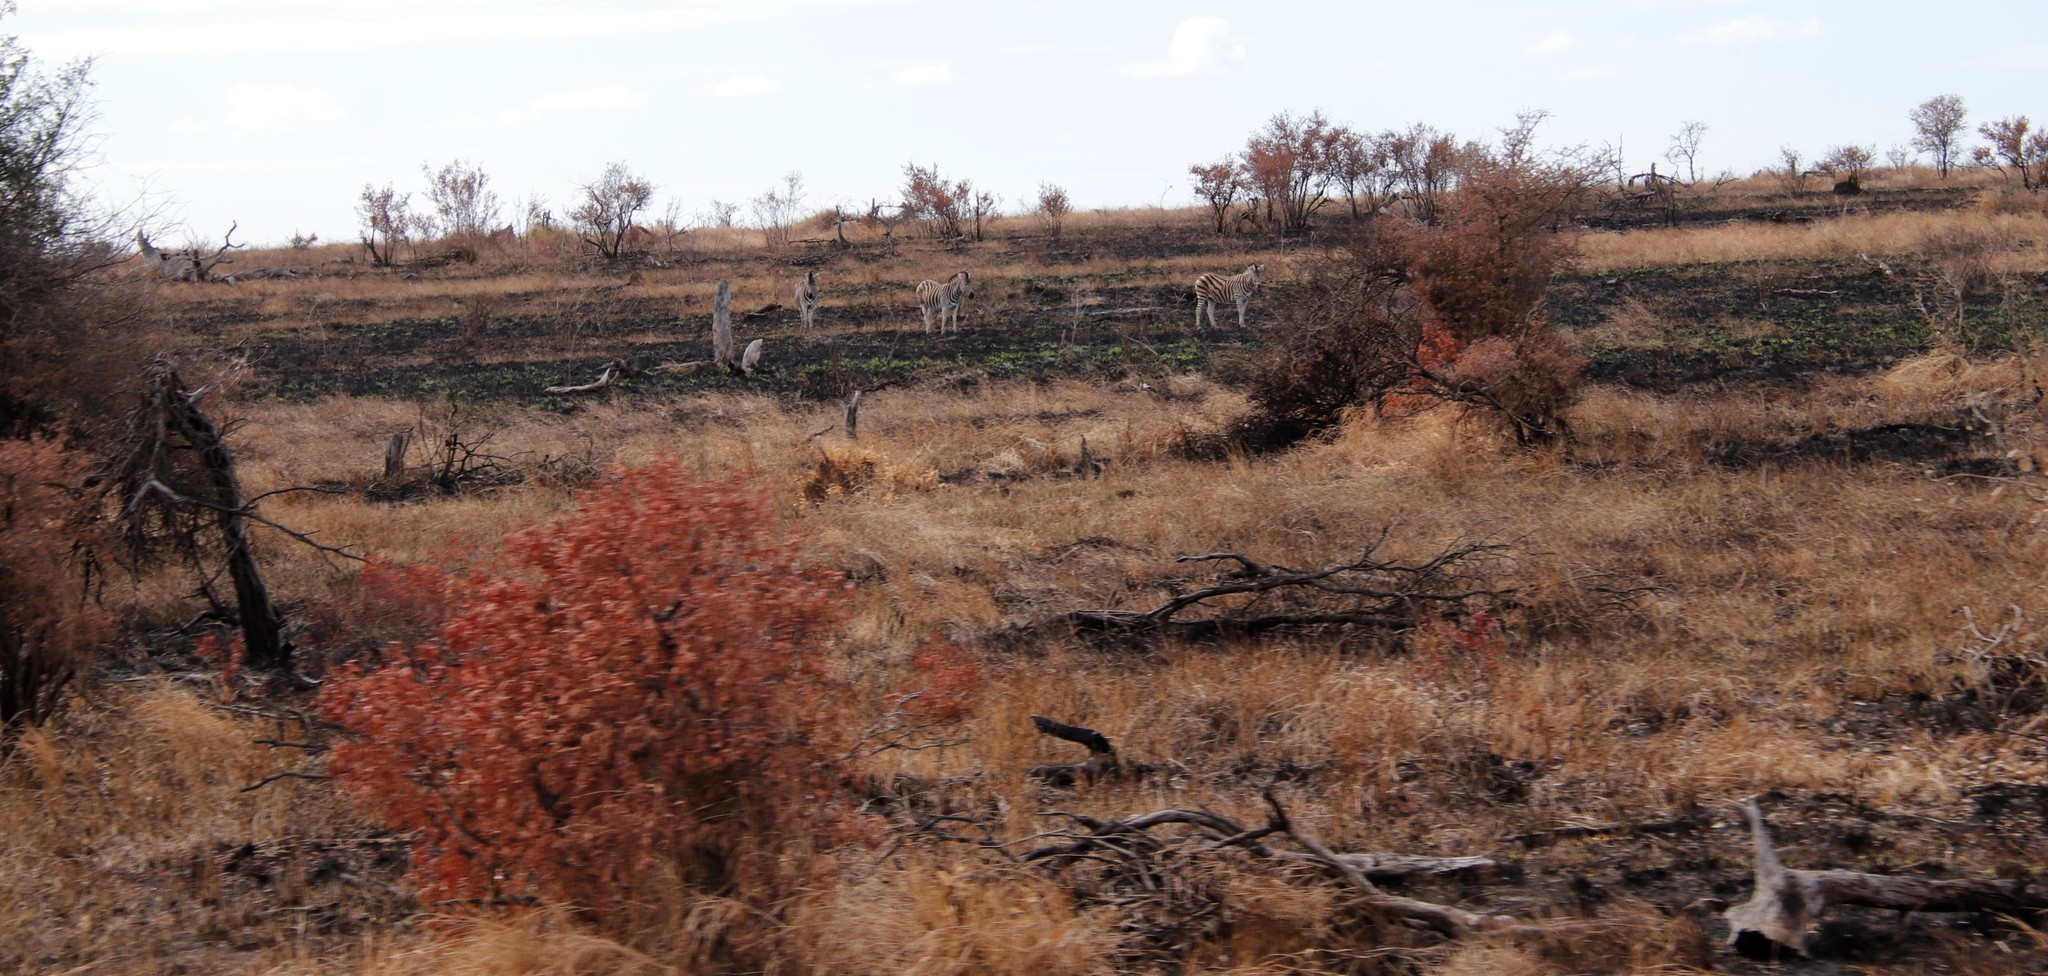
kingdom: Animalia
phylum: Chordata
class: Mammalia
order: Perissodactyla
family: Equidae
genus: Equus
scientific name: Equus quagga
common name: Plains zebra
